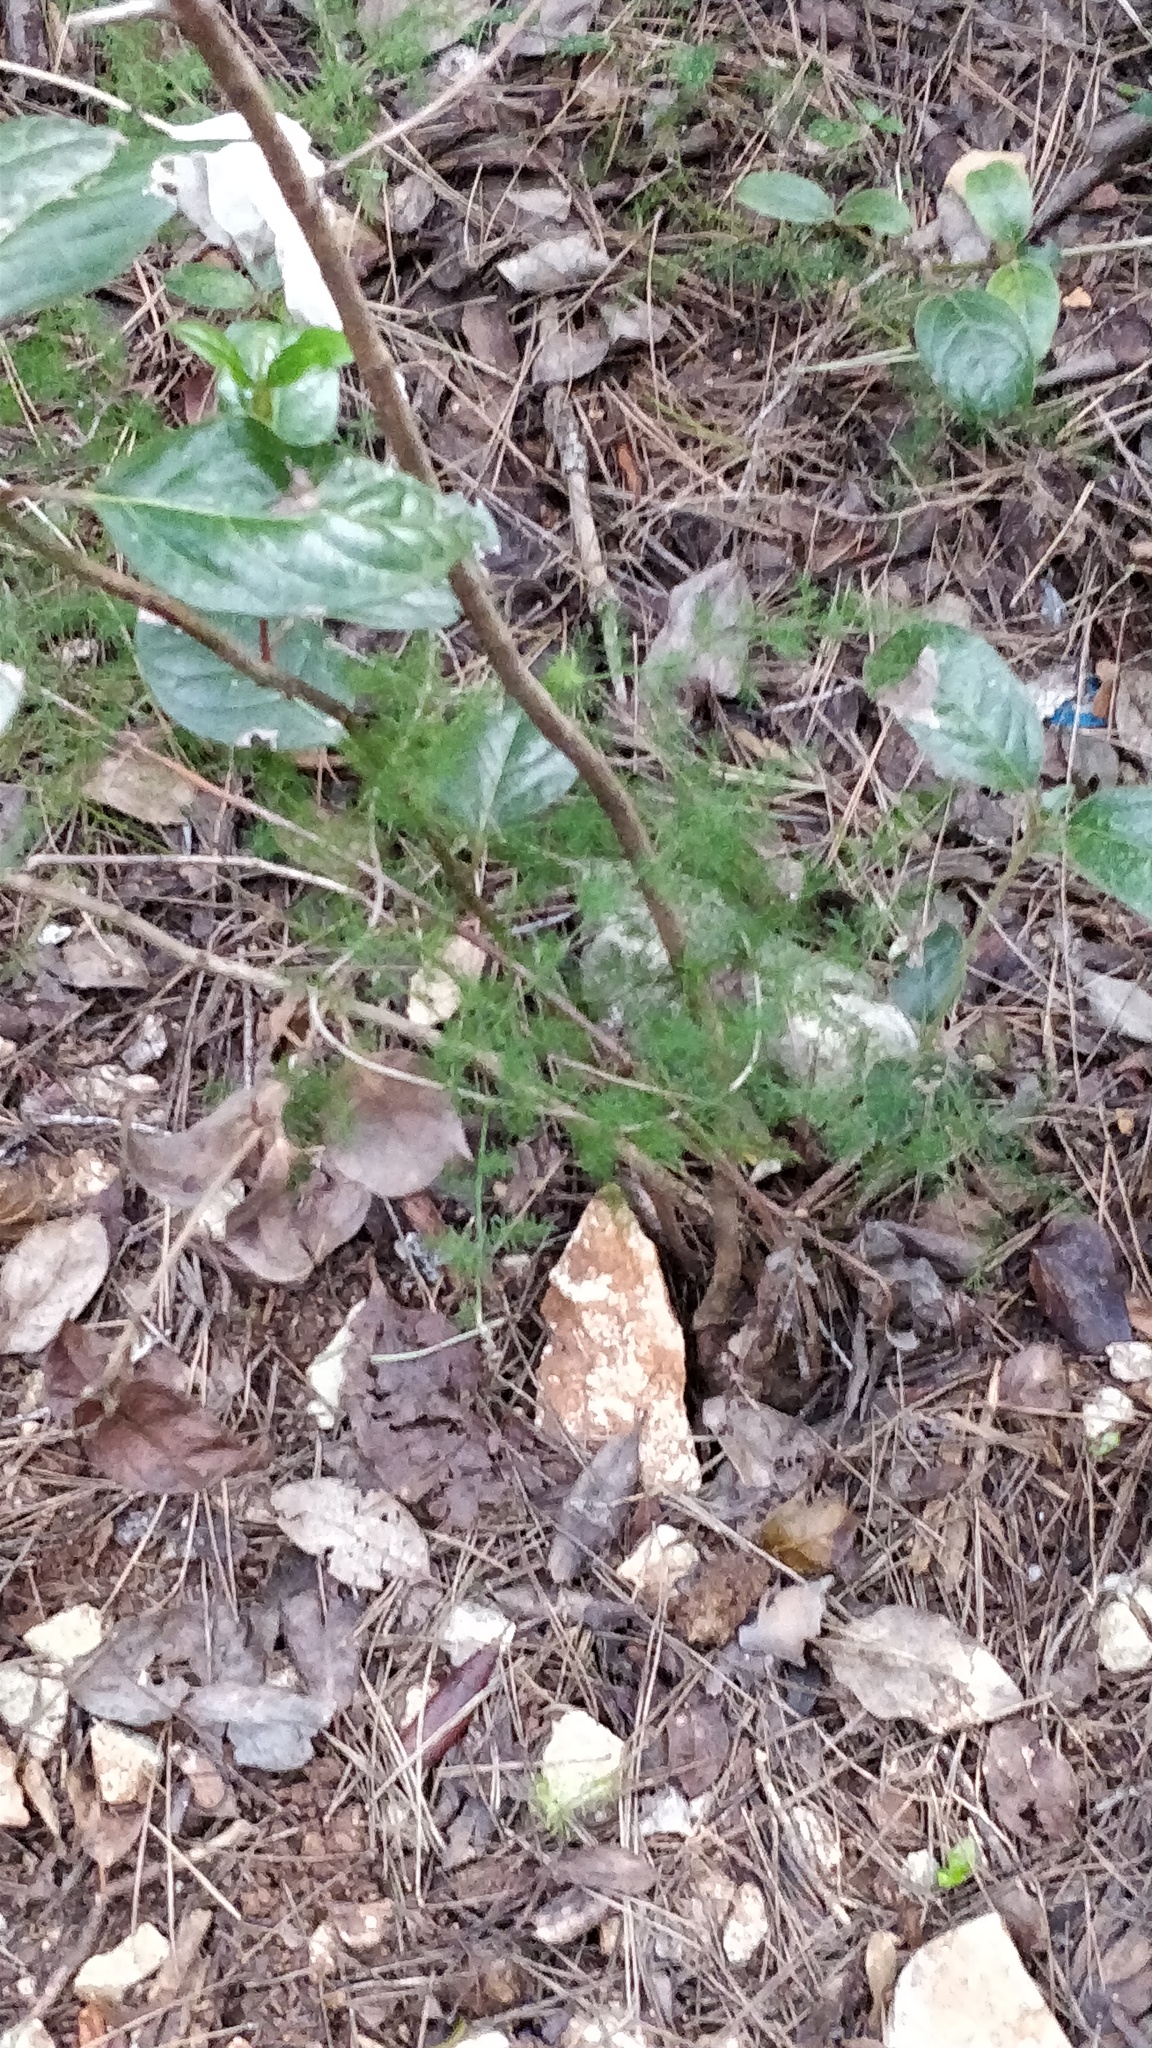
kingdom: Plantae
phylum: Tracheophyta
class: Liliopsida
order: Asparagales
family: Asparagaceae
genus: Asparagus
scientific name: Asparagus acutifolius
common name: Wild asparagus
